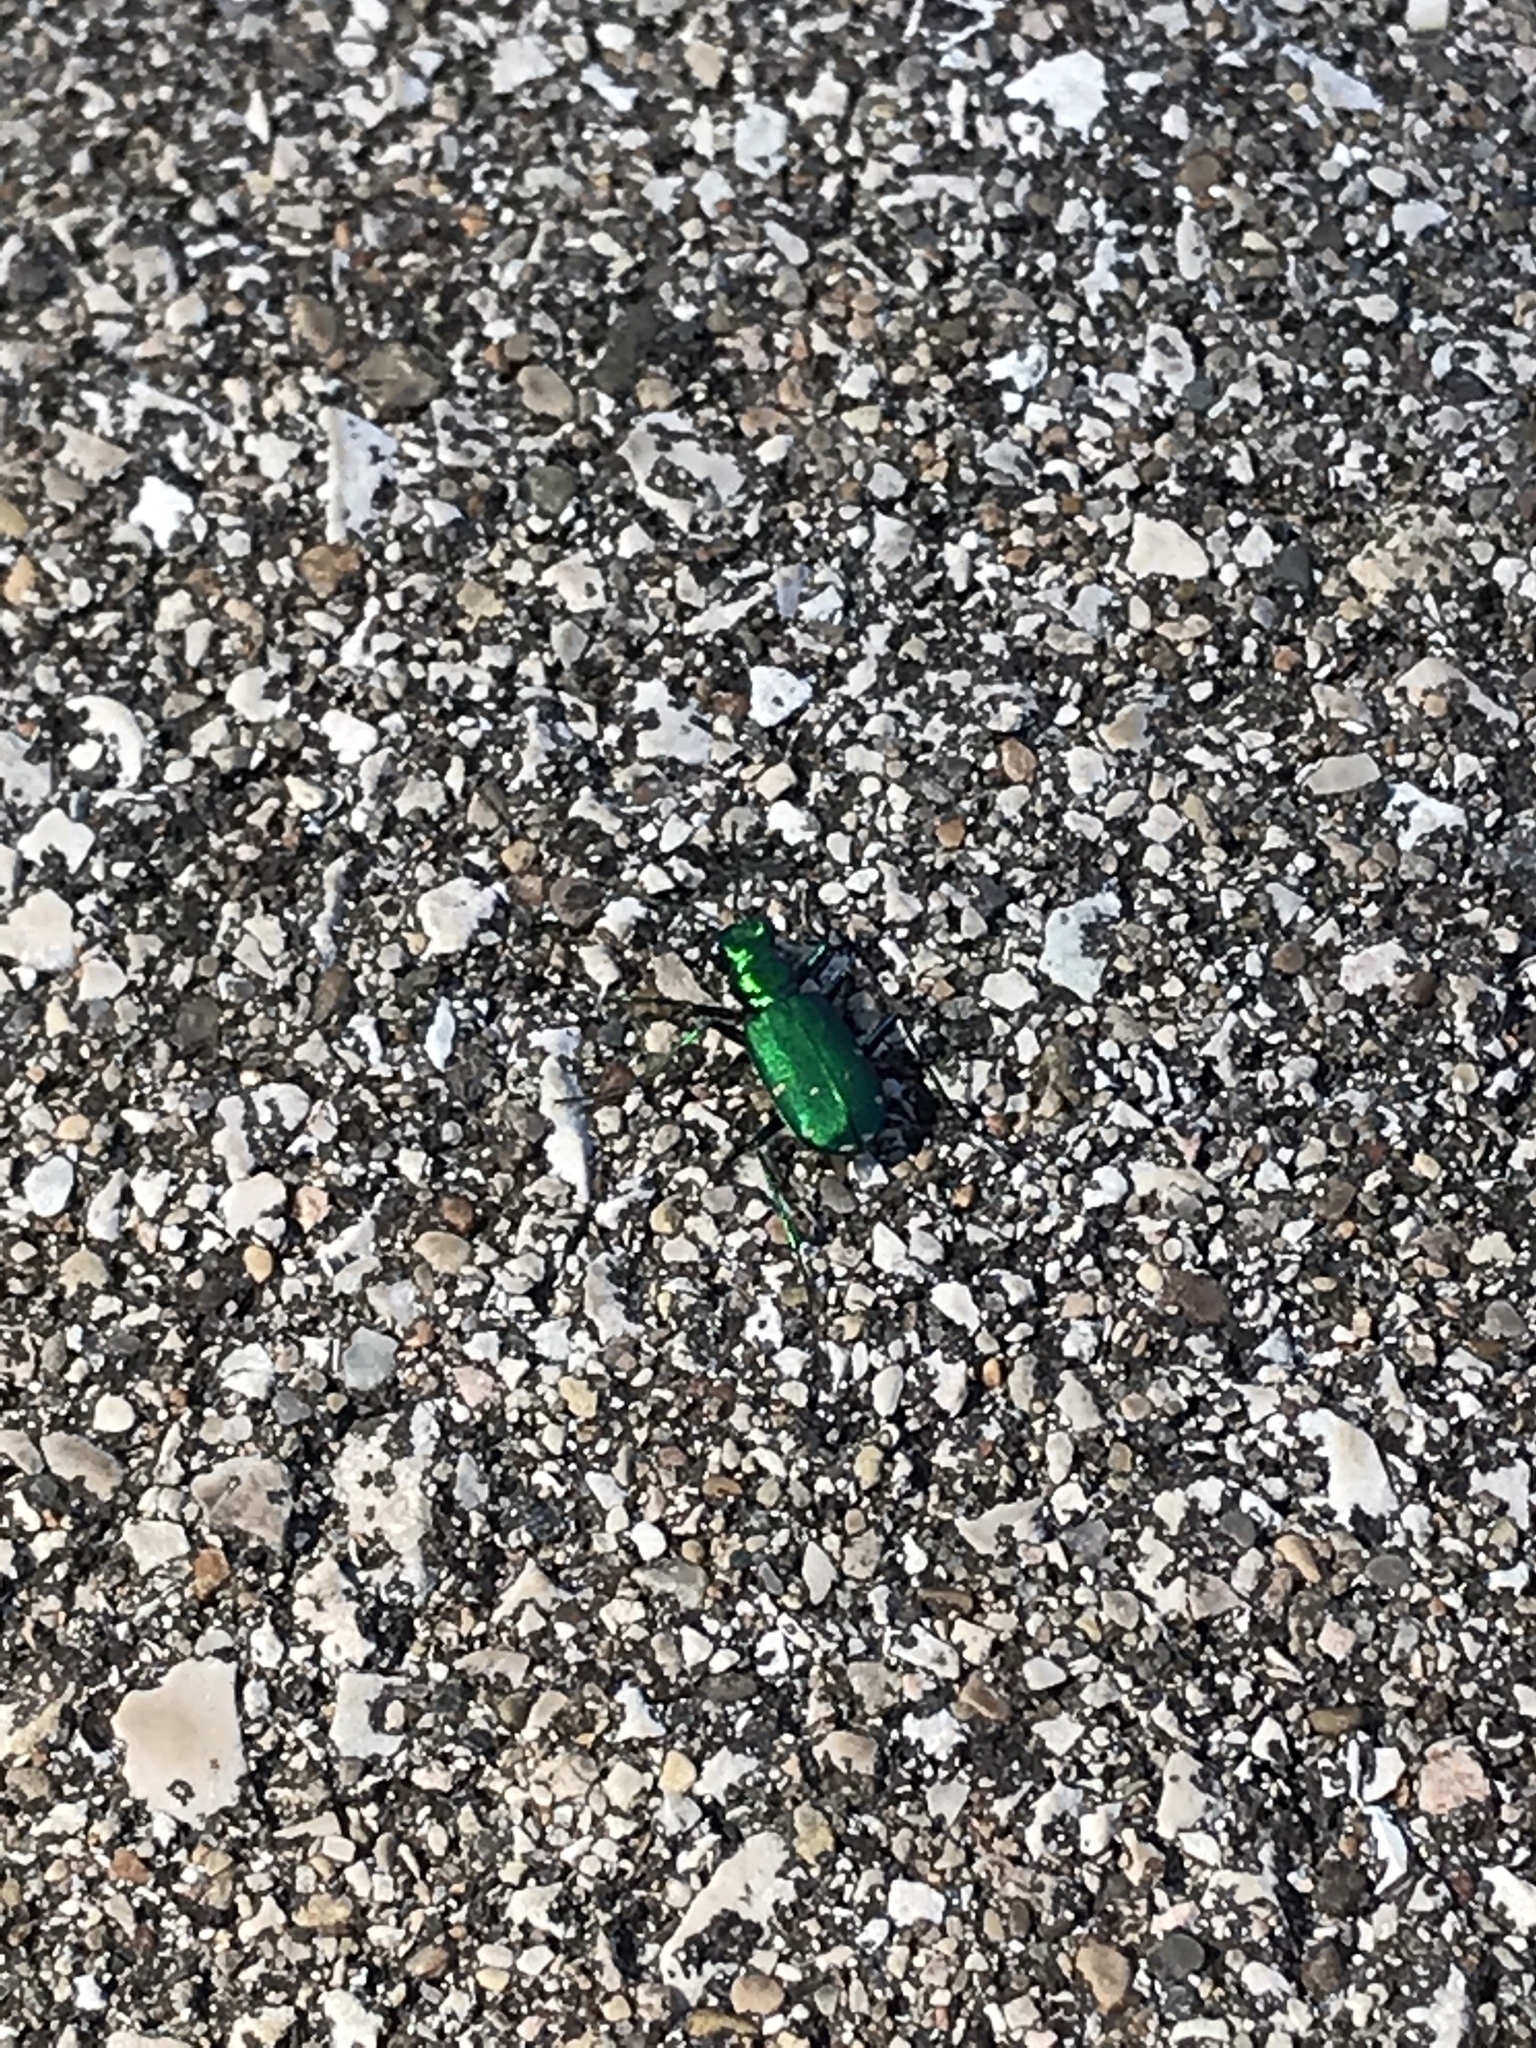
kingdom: Animalia
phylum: Arthropoda
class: Insecta
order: Coleoptera
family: Carabidae
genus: Cicindela
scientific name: Cicindela sexguttata
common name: Six-spotted tiger beetle
